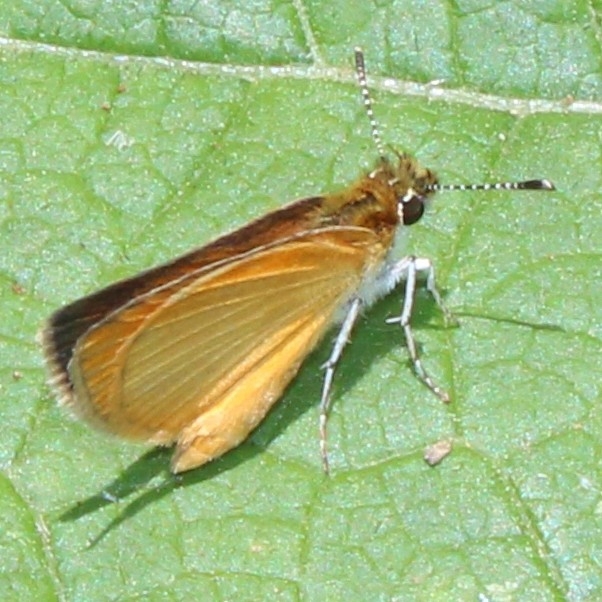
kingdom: Animalia
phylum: Arthropoda
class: Insecta
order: Lepidoptera
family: Hesperiidae
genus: Ancyloxypha
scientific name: Ancyloxypha numitor
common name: Least skipper
